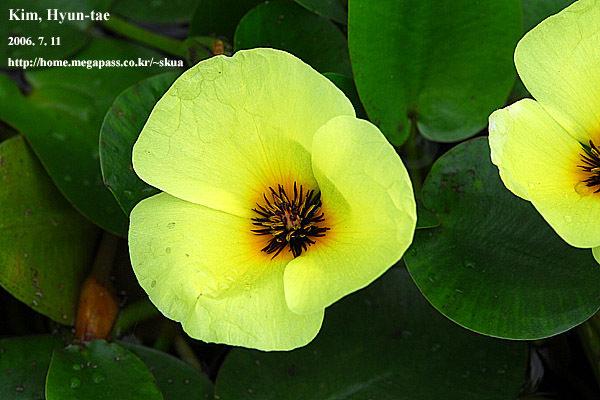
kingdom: Plantae
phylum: Tracheophyta
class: Liliopsida
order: Alismatales
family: Alismataceae
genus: Hydrocleys
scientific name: Hydrocleys nymphoides
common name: Water-poppy
